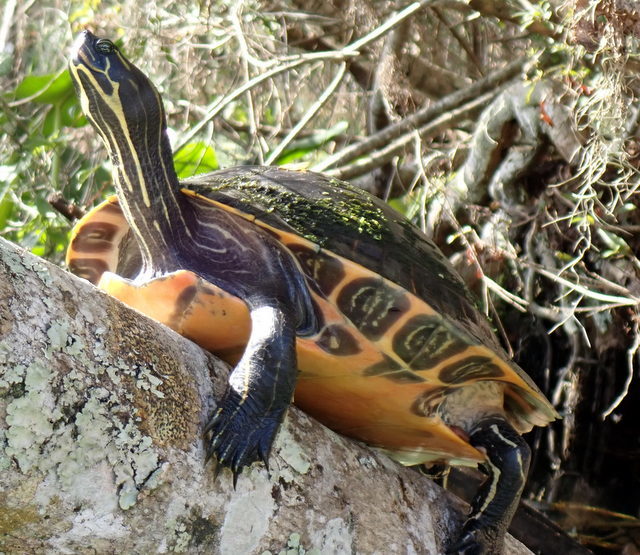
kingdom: Animalia
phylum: Chordata
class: Testudines
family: Emydidae
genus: Pseudemys
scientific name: Pseudemys concinna
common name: Eastern river cooter
